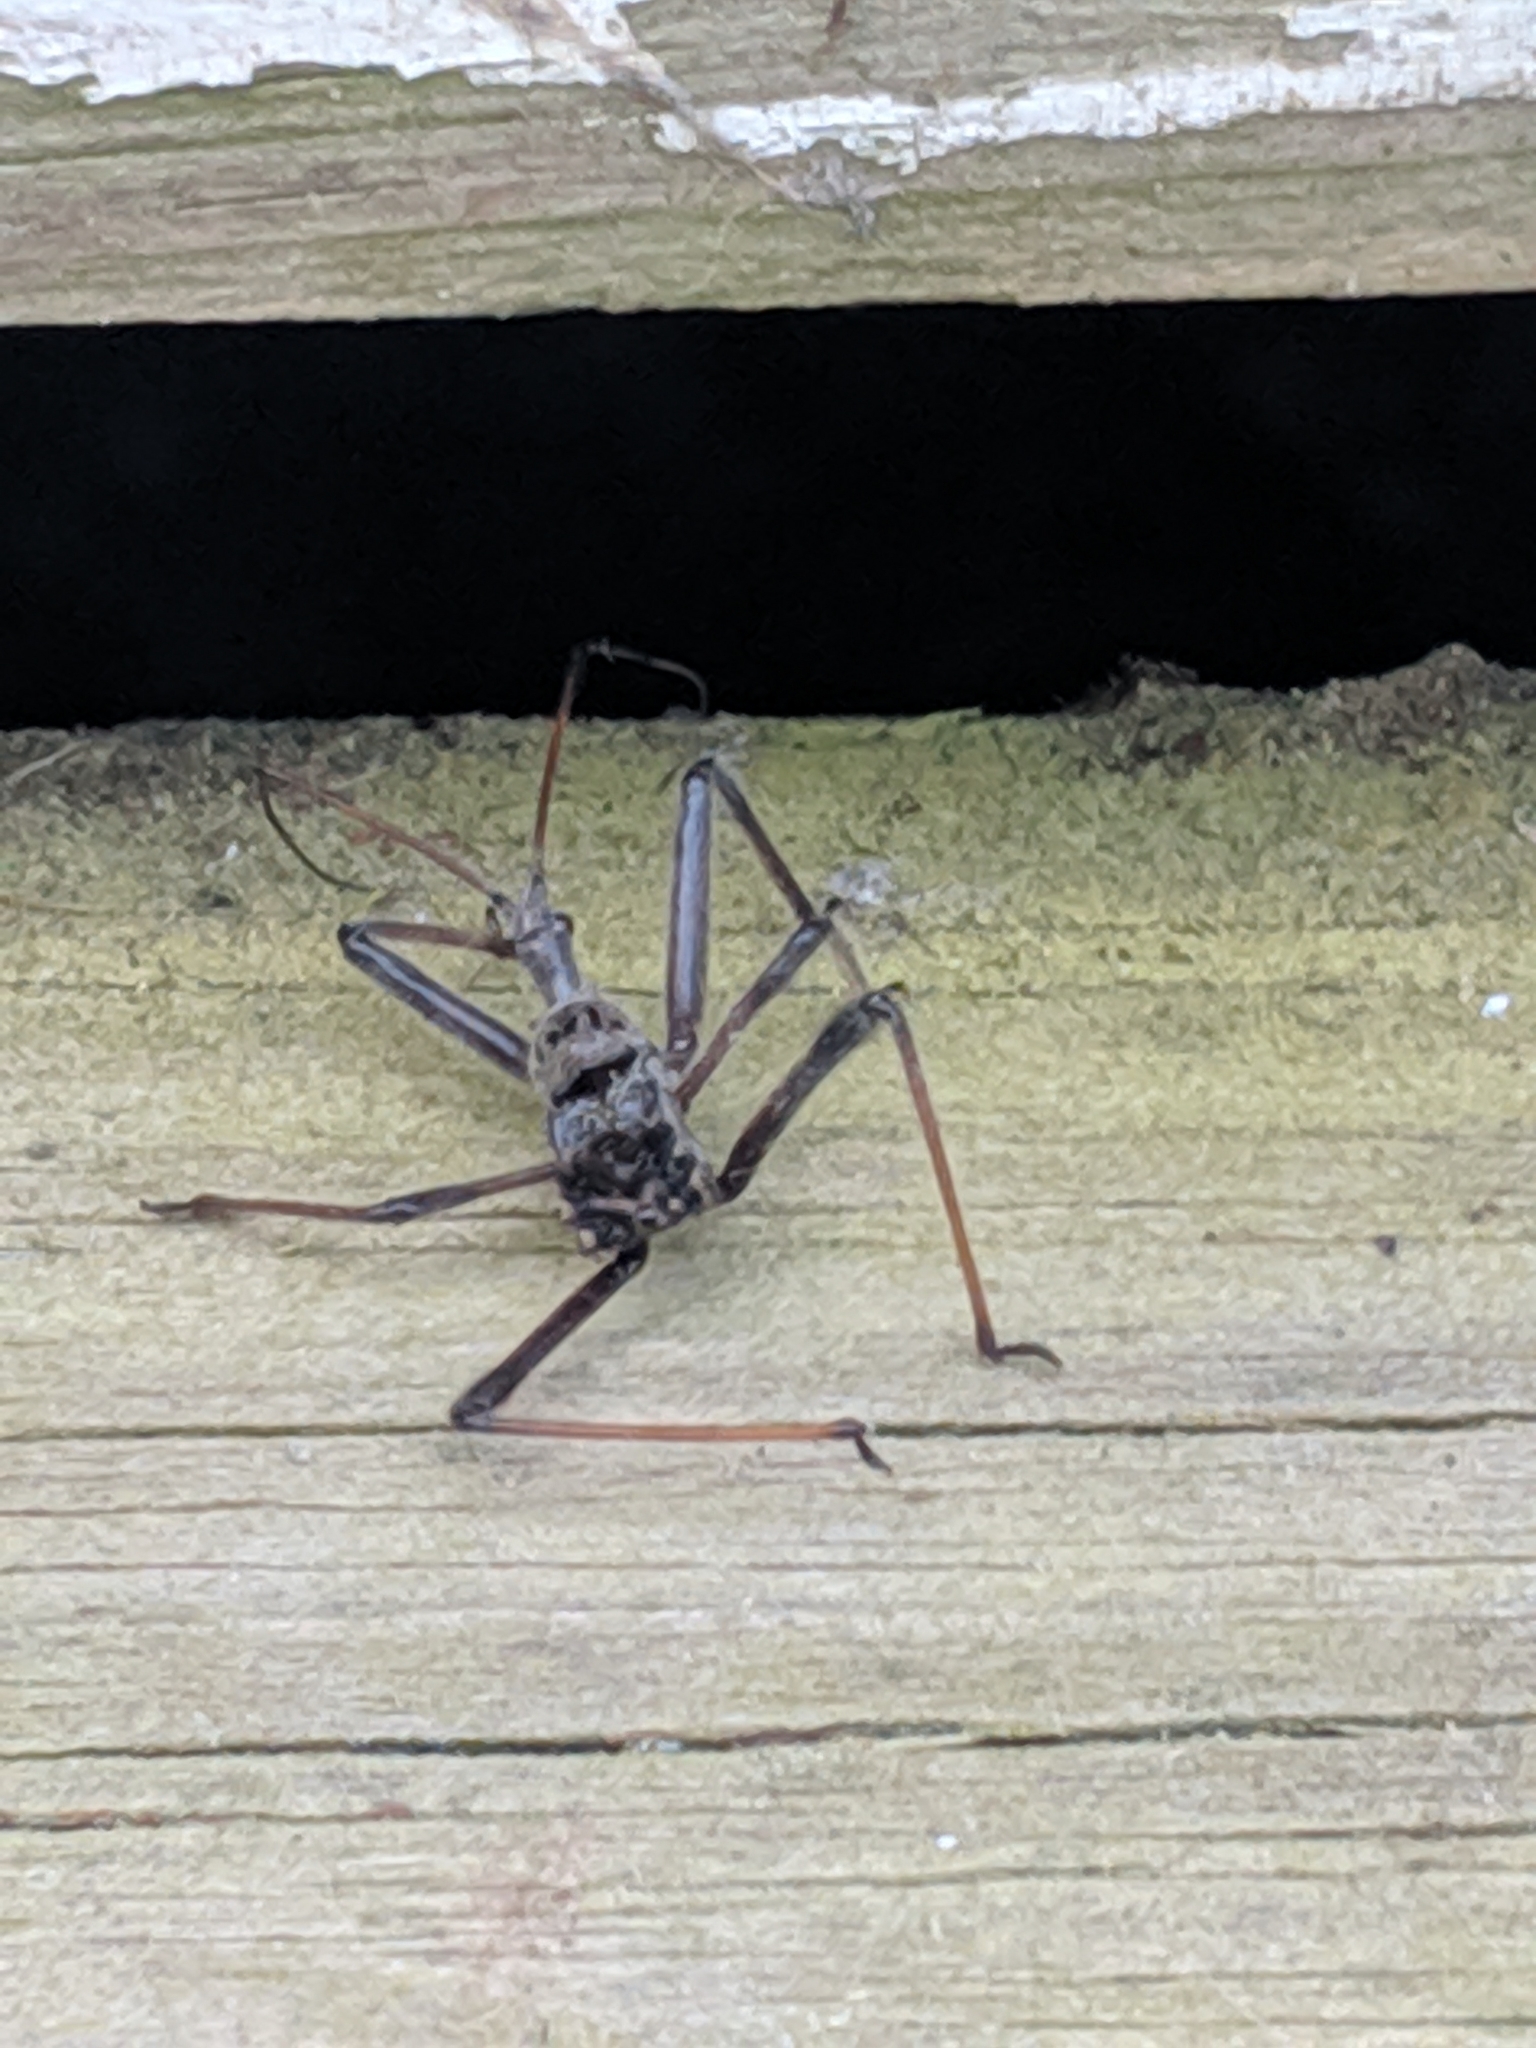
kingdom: Animalia
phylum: Arthropoda
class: Insecta
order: Hemiptera
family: Reduviidae
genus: Arilus
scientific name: Arilus cristatus
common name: North american wheel bug
